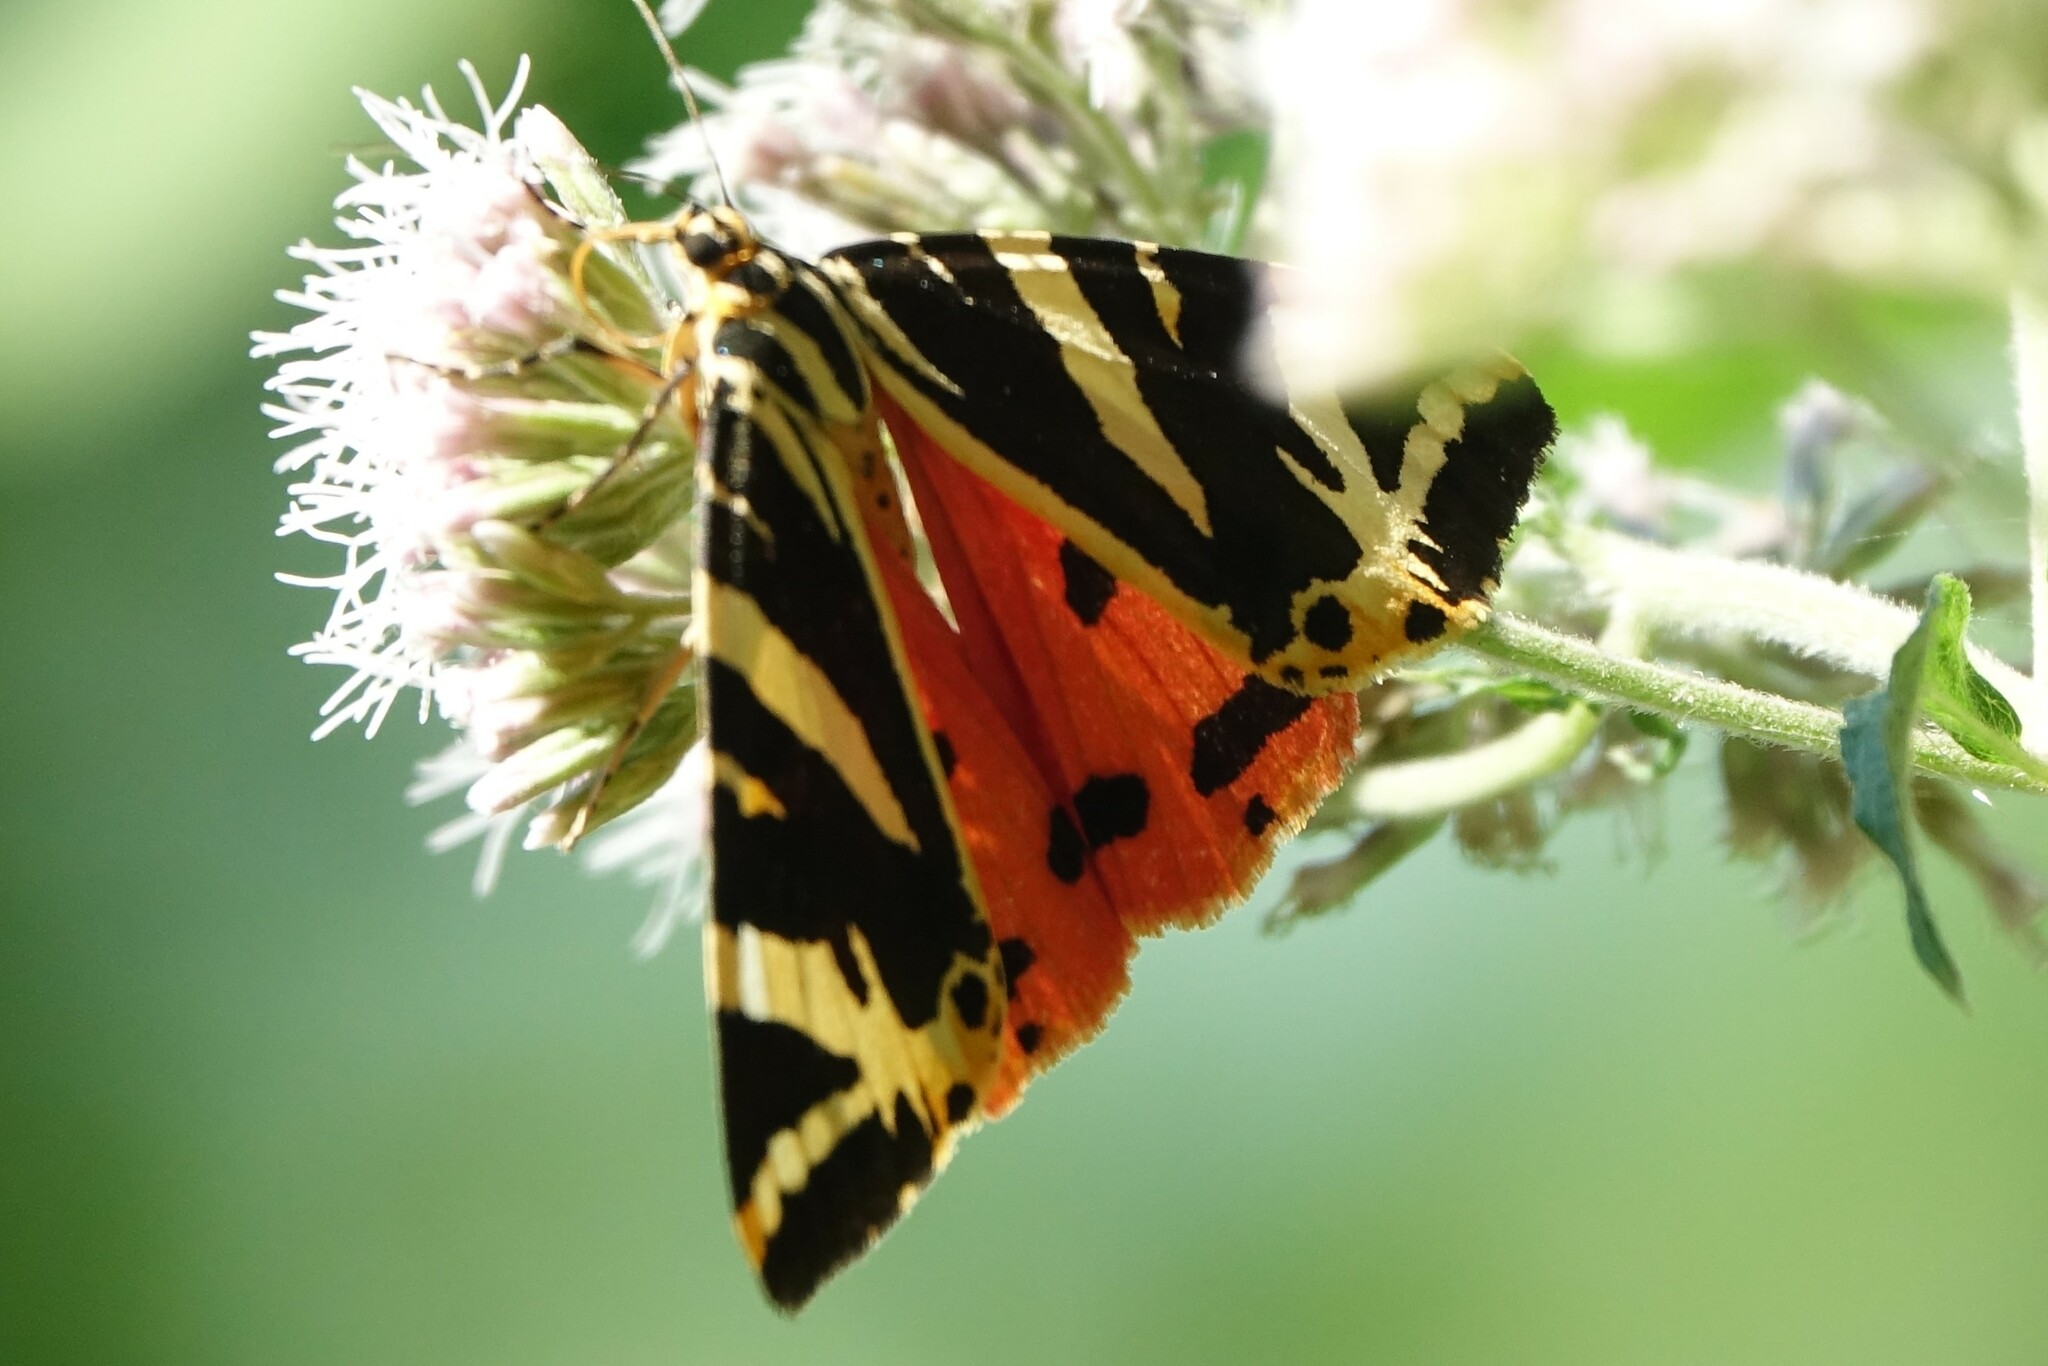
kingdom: Animalia
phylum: Arthropoda
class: Insecta
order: Lepidoptera
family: Erebidae
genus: Euplagia
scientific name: Euplagia quadripunctaria
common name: Jersey tiger
